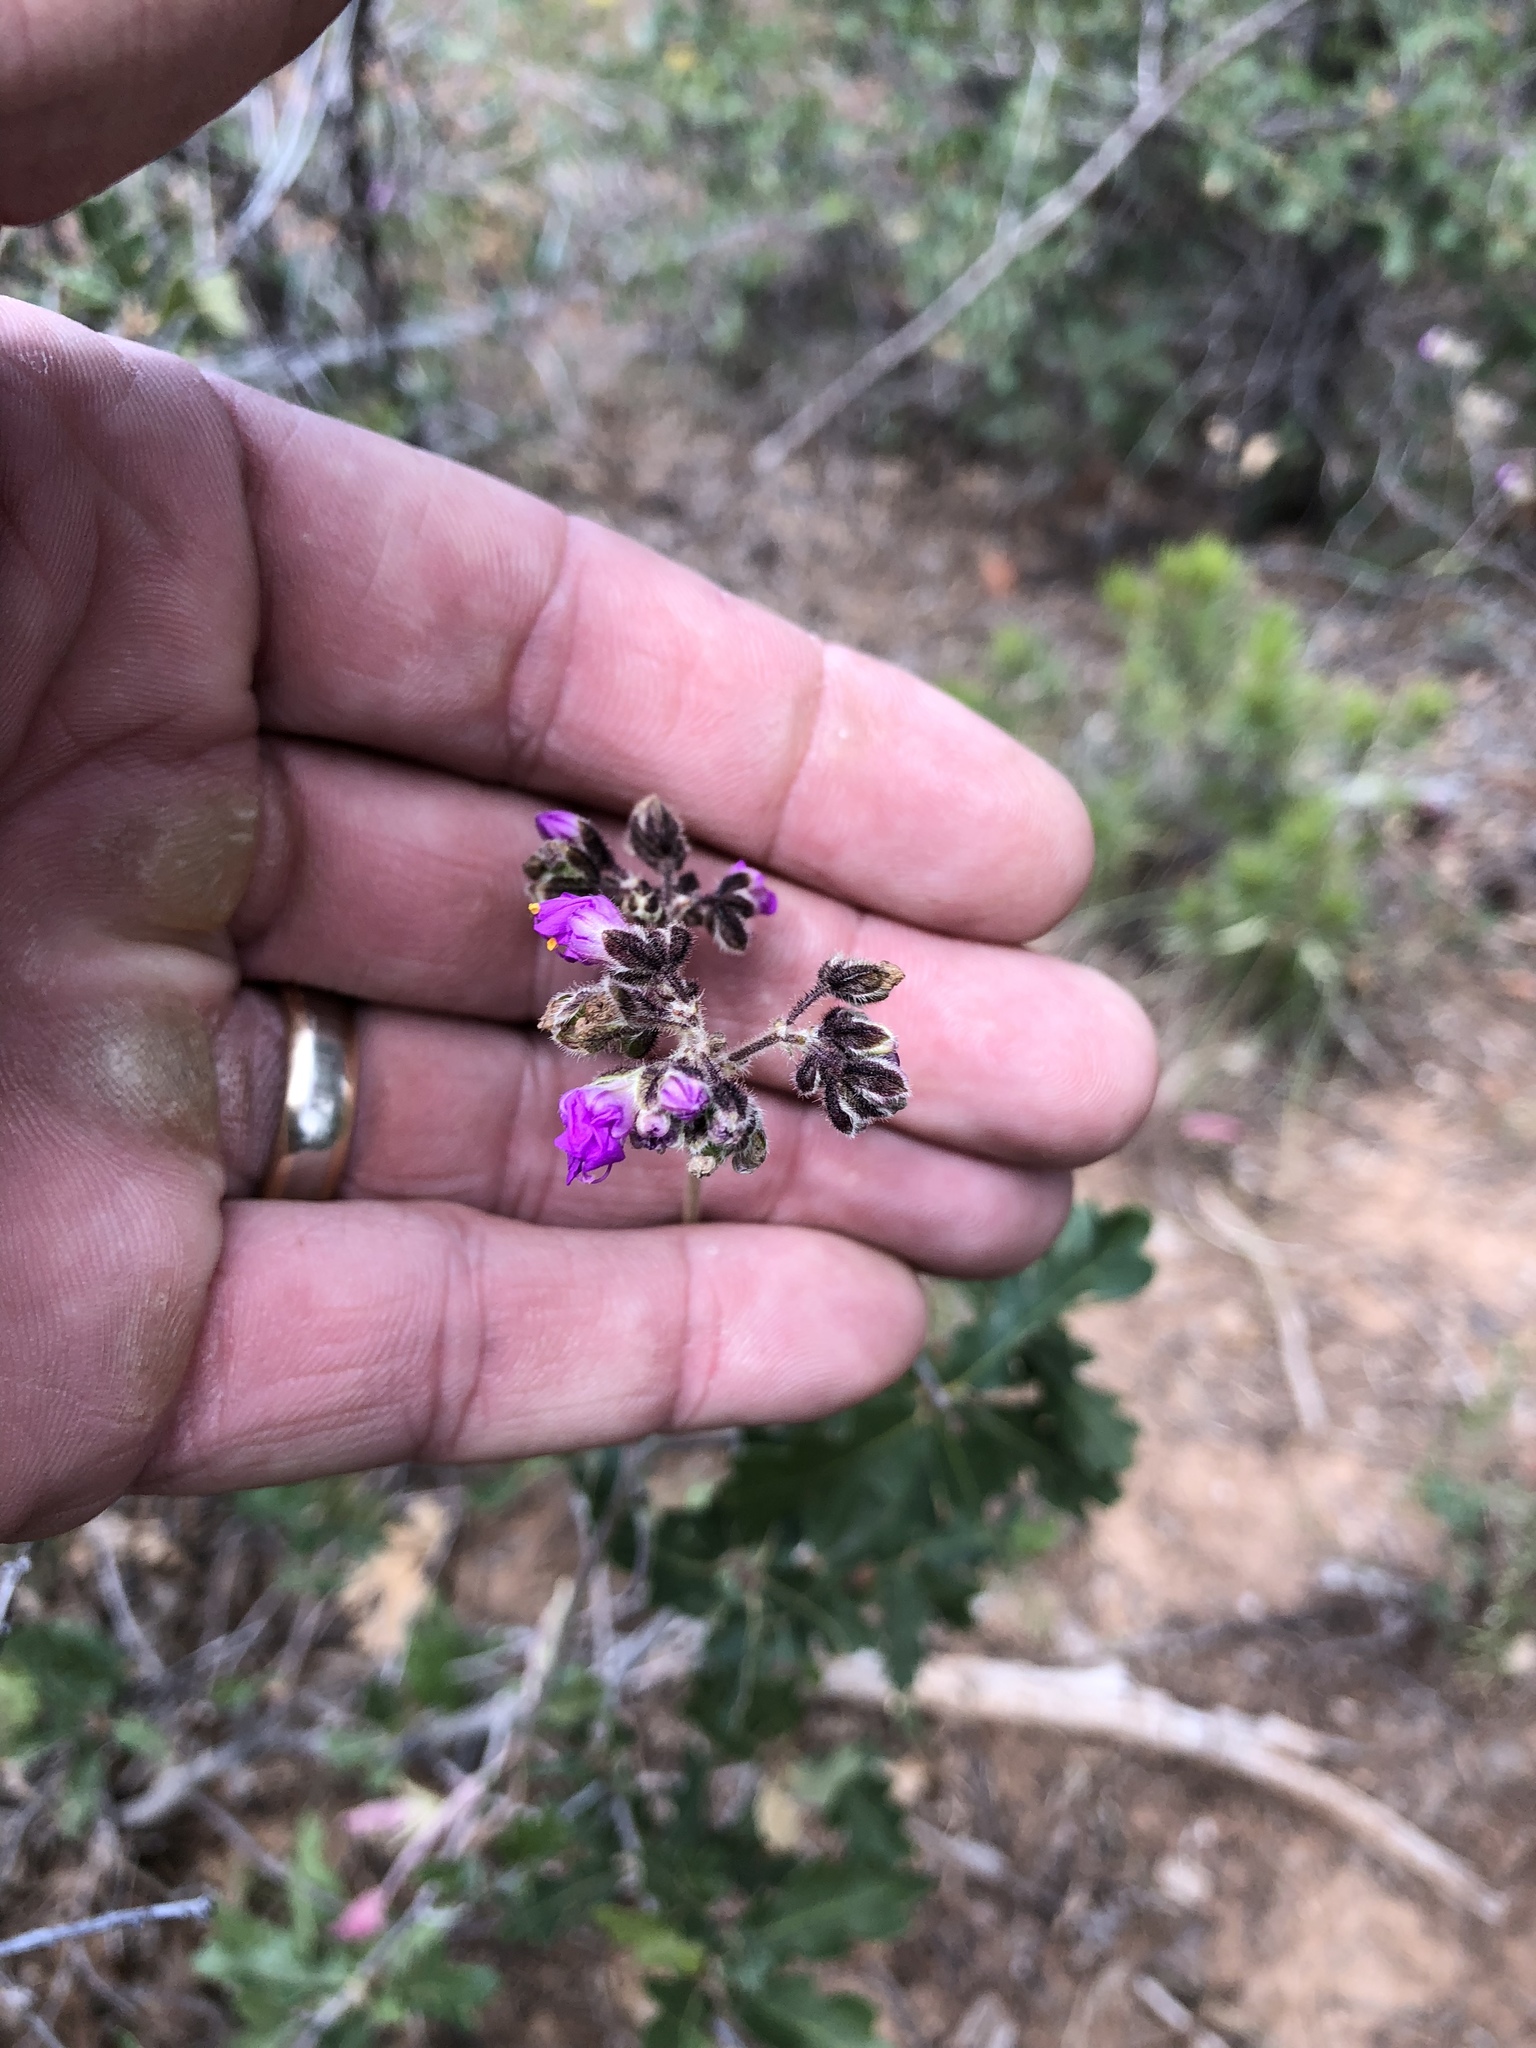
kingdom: Plantae
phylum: Tracheophyta
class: Magnoliopsida
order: Caryophyllales
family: Nyctaginaceae
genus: Mirabilis
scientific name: Mirabilis melanotricha
